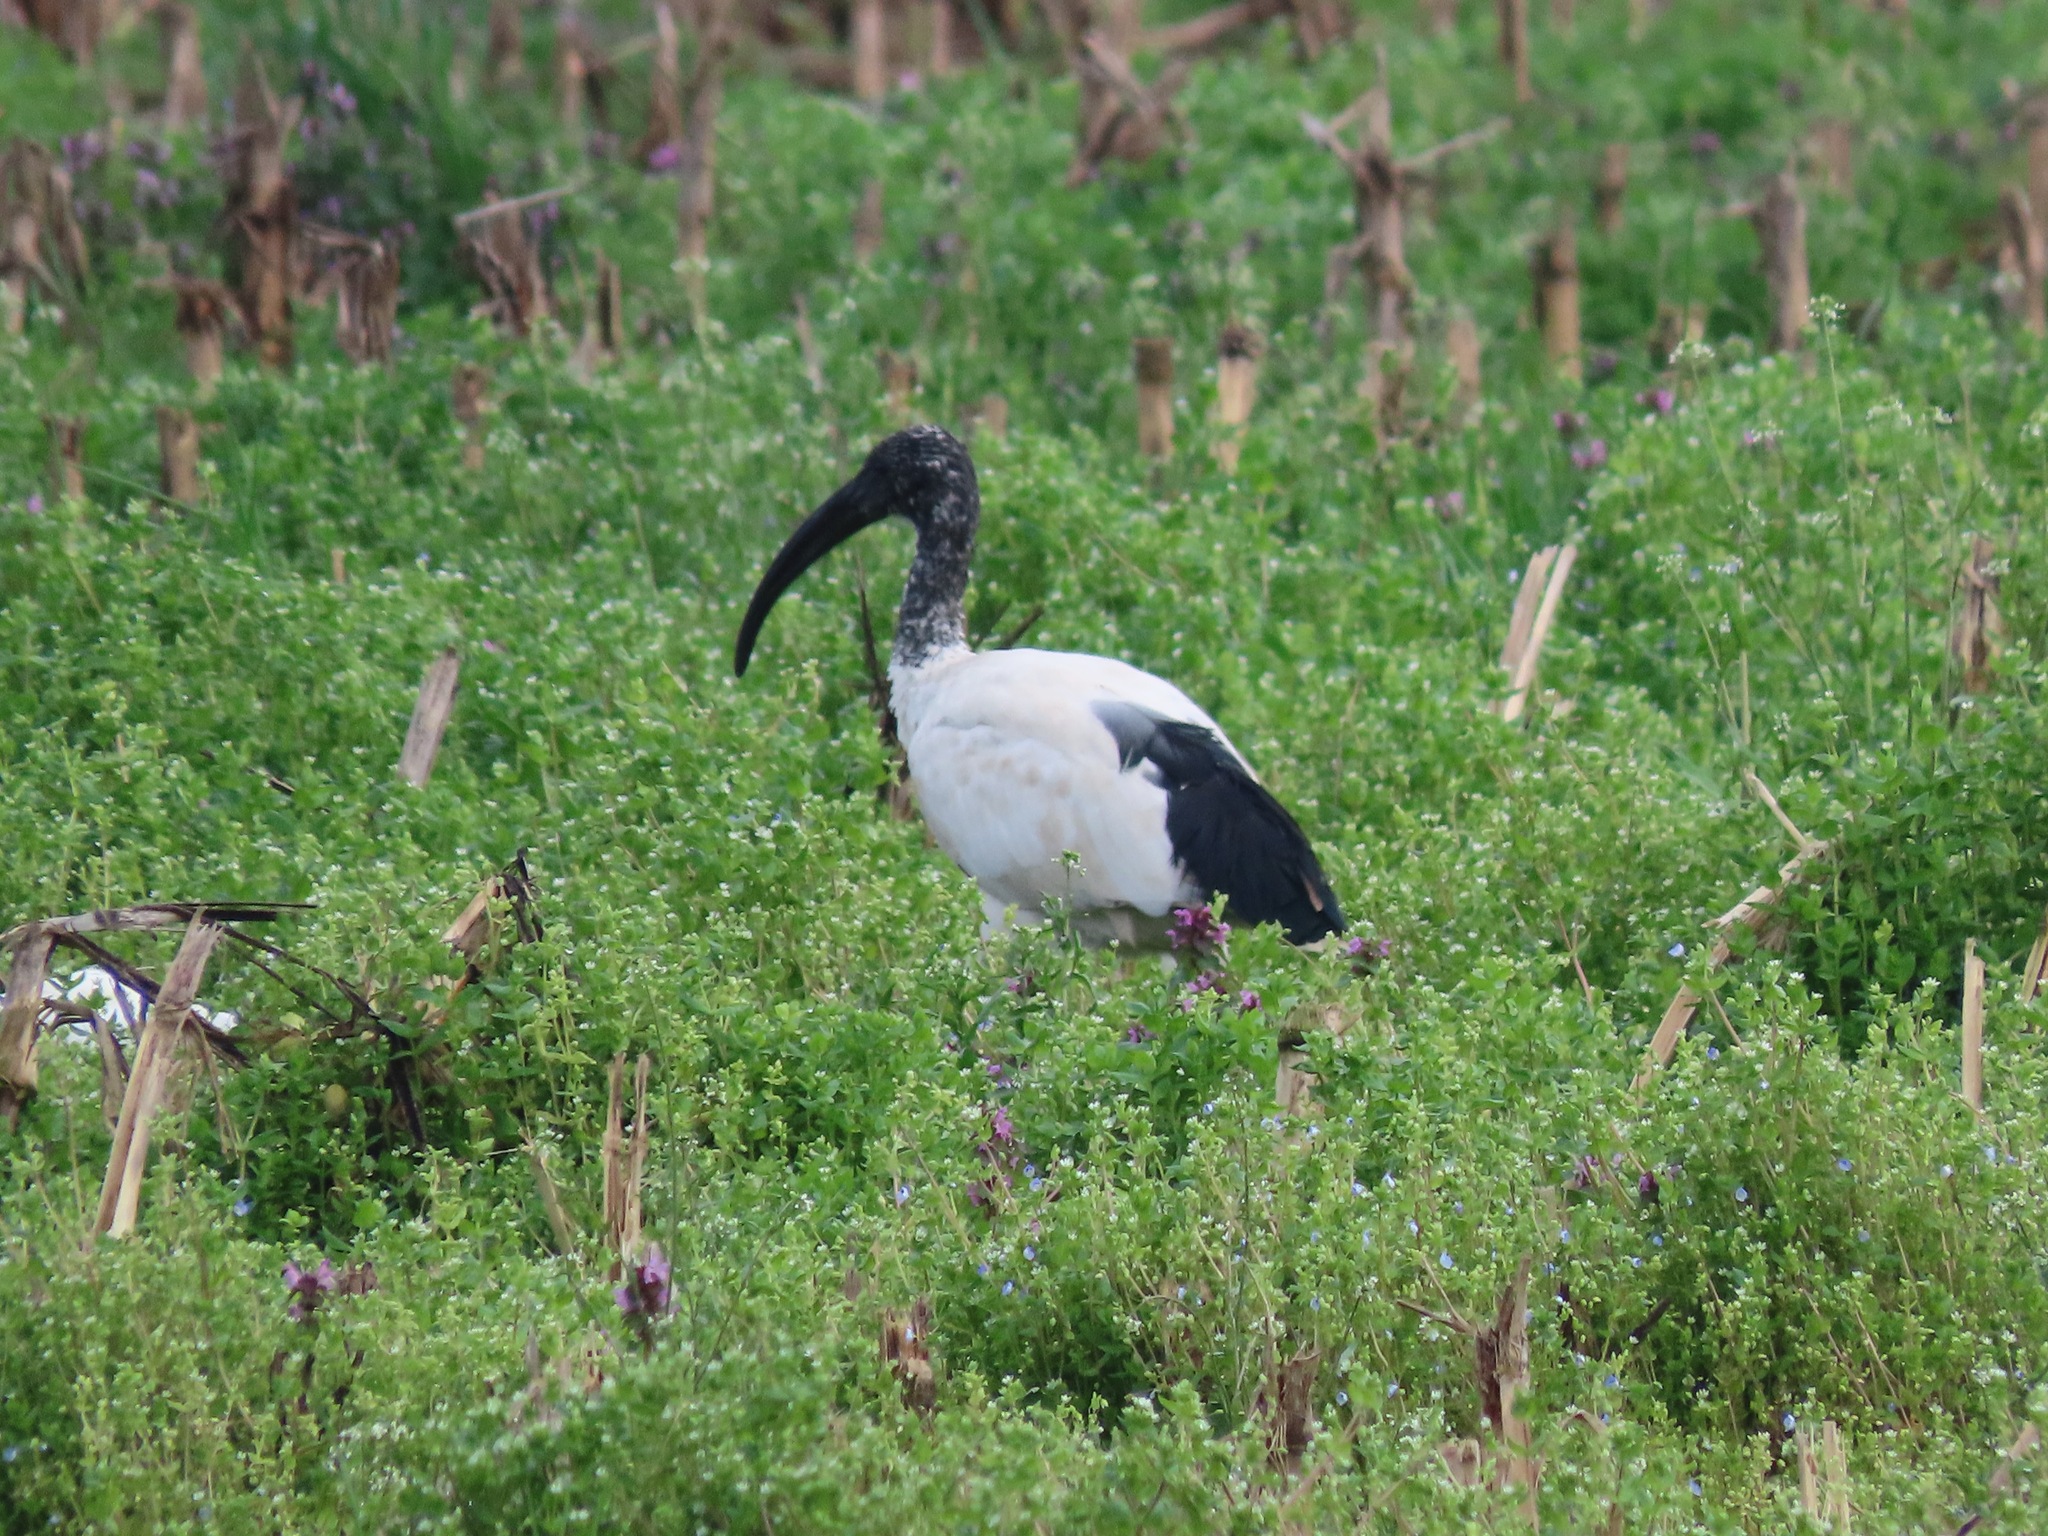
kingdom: Animalia
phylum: Chordata
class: Aves
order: Pelecaniformes
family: Threskiornithidae
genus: Threskiornis
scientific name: Threskiornis aethiopicus
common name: Sacred ibis
